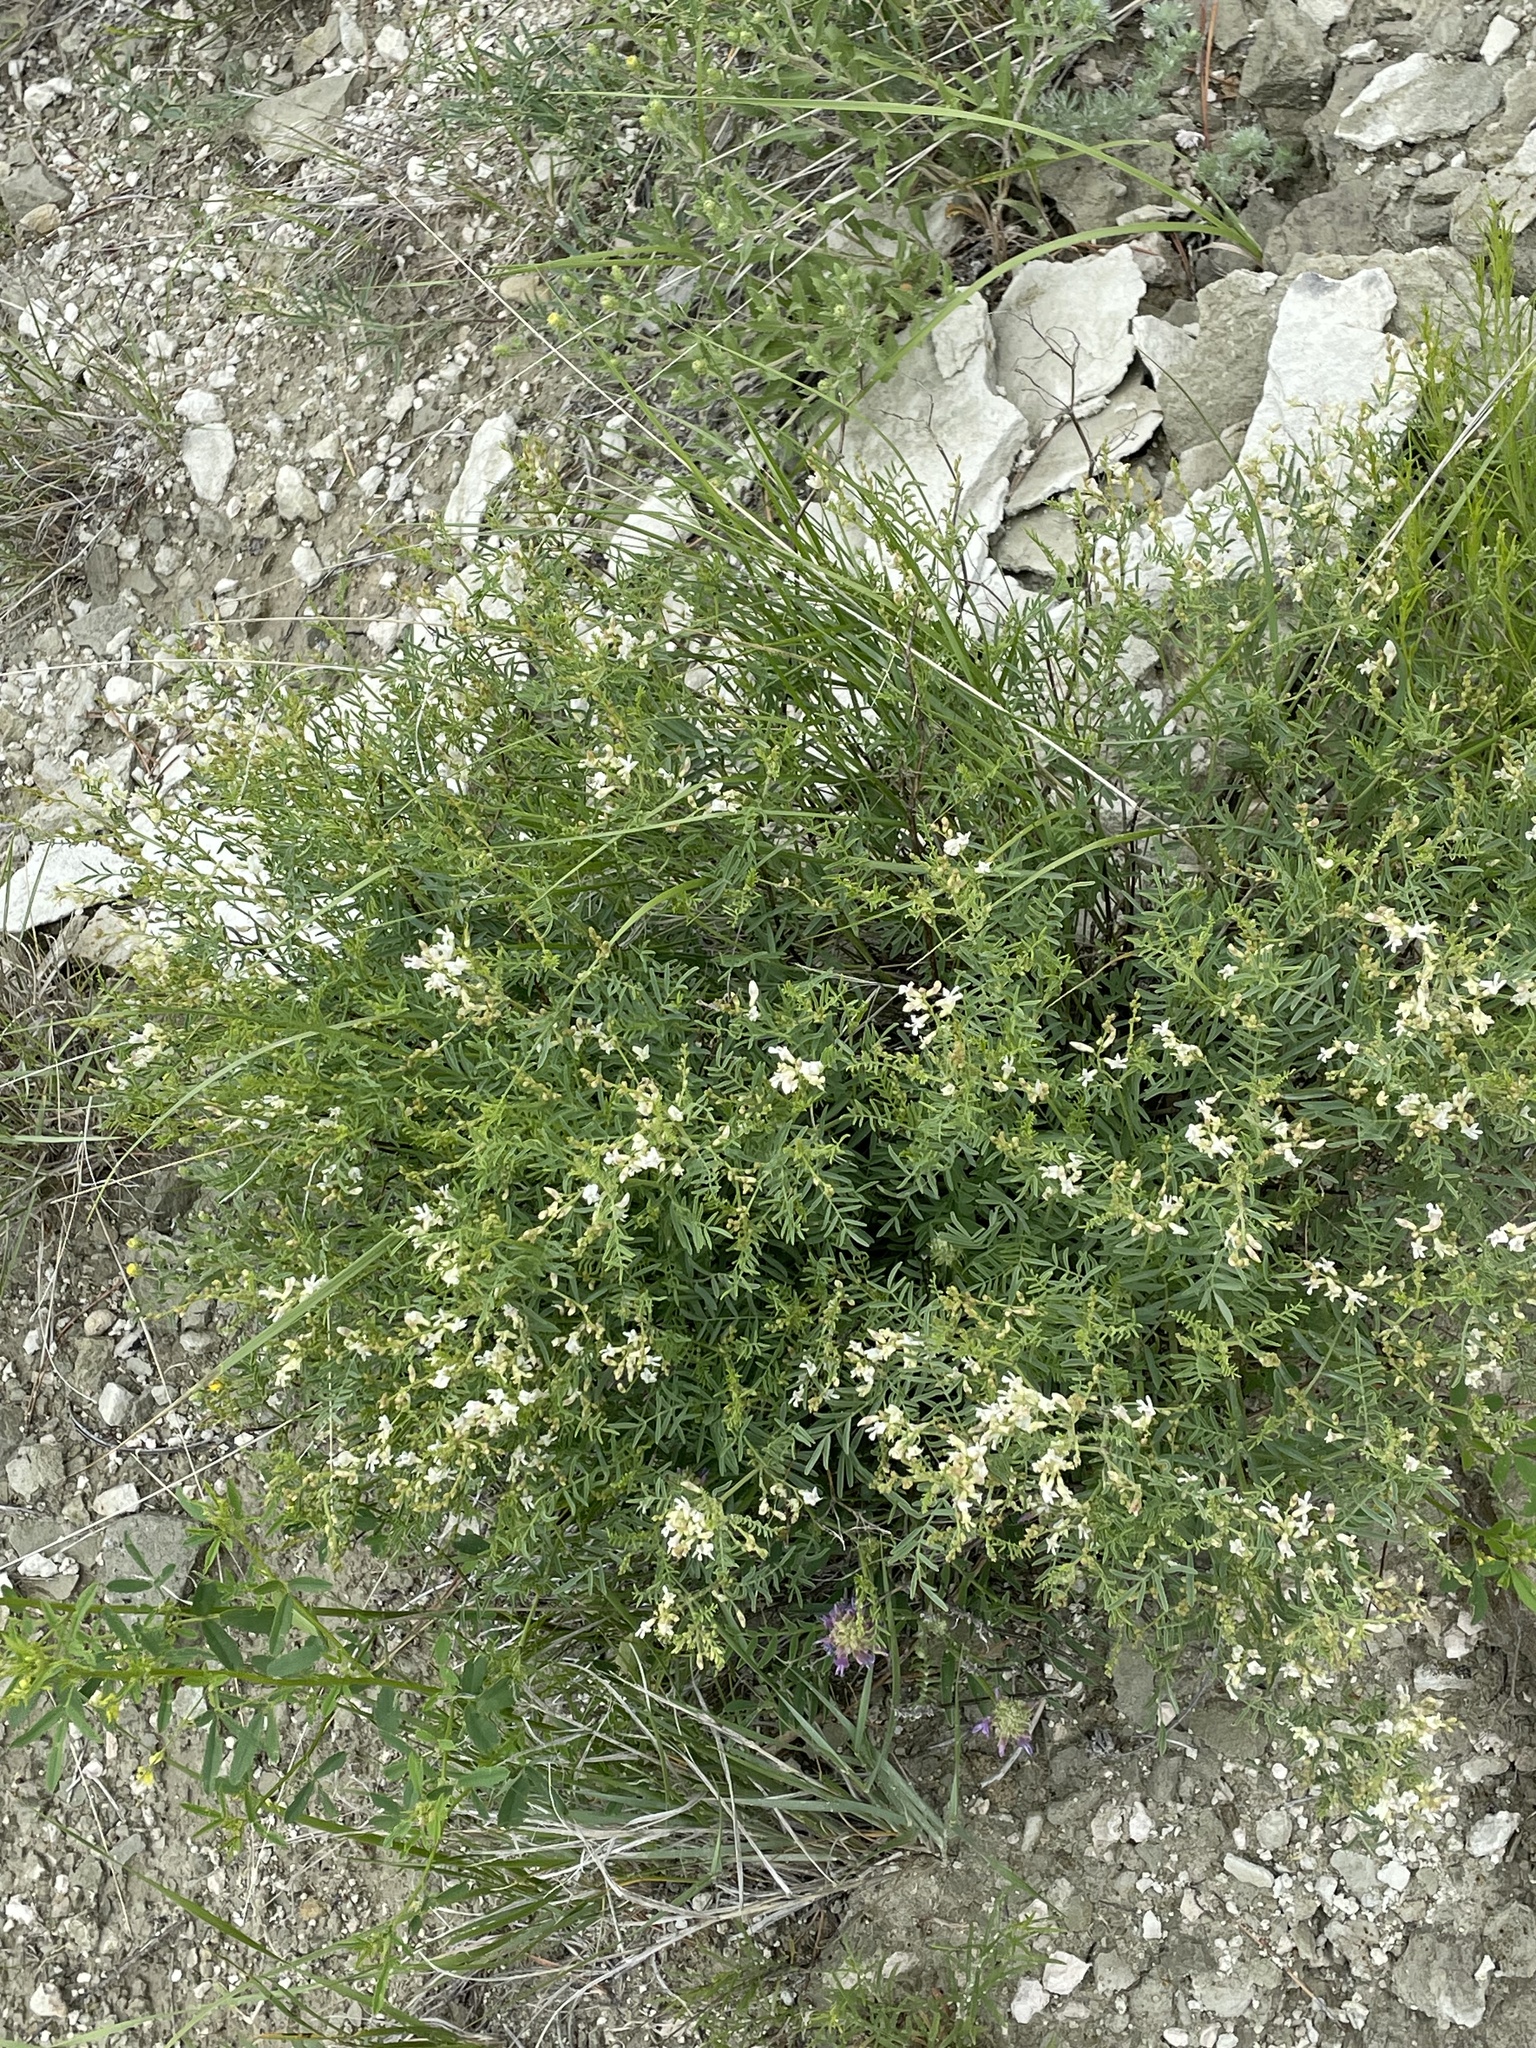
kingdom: Plantae
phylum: Tracheophyta
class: Magnoliopsida
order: Fabales
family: Fabaceae
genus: Astragalus
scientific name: Astragalus tenellus
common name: Pulse milk-vetch
